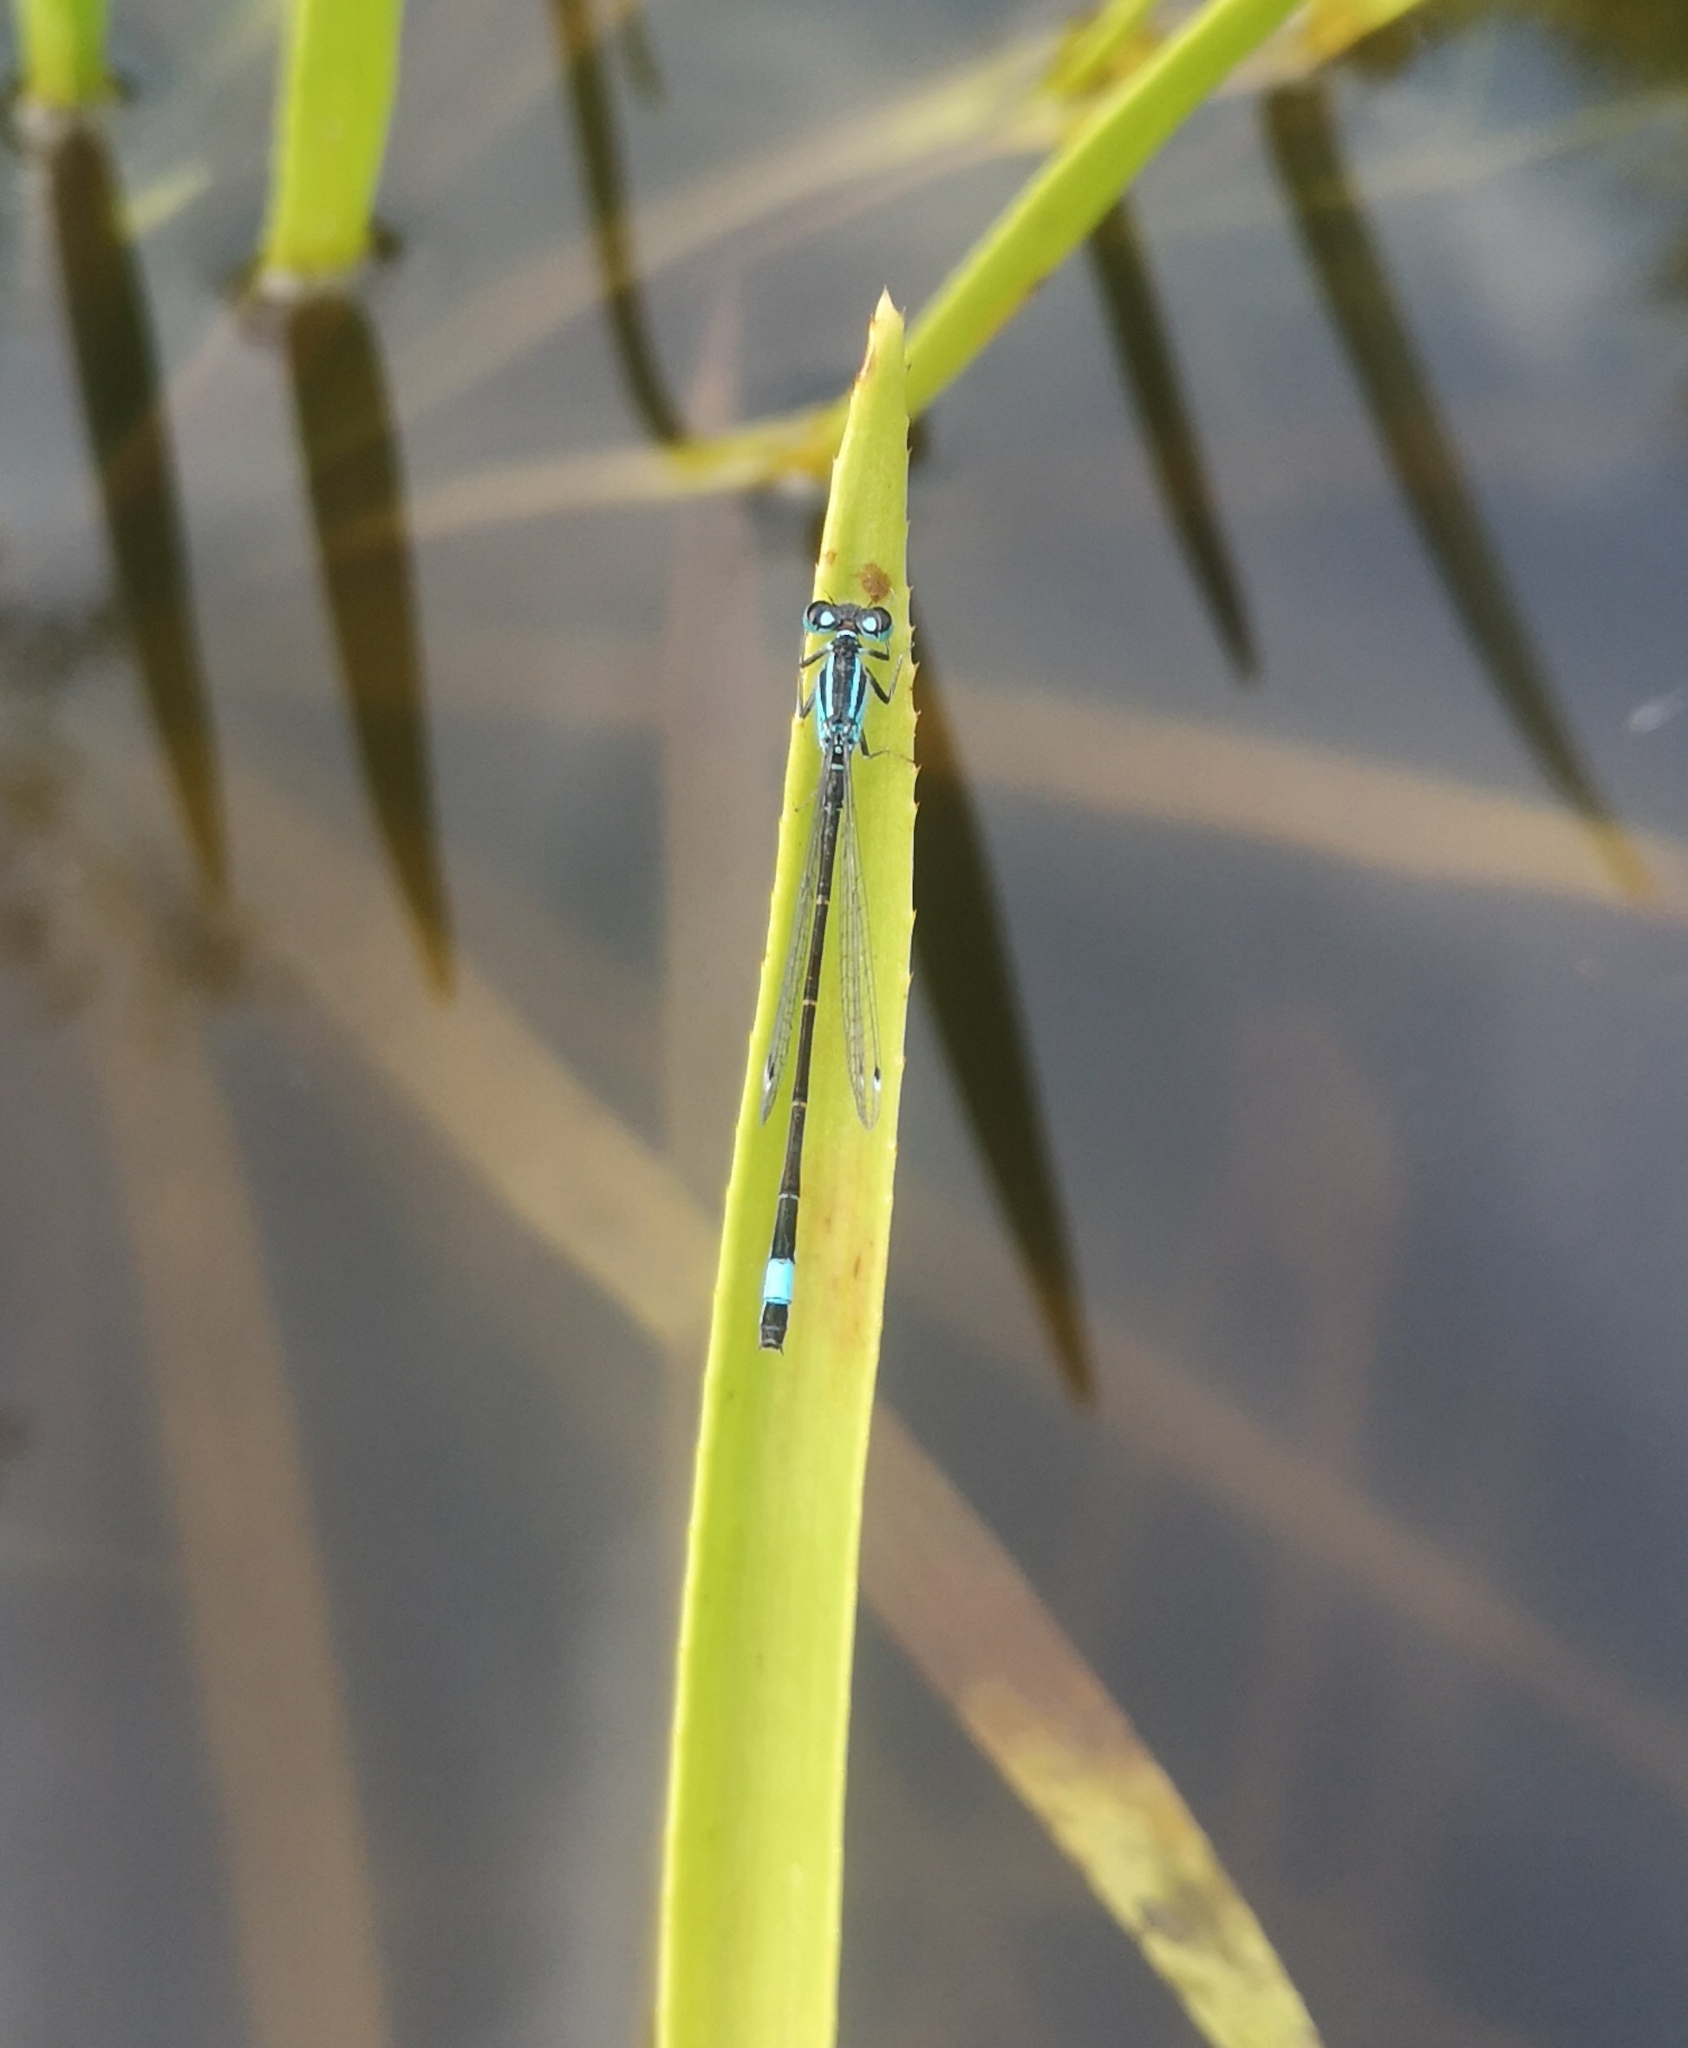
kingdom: Animalia
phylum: Arthropoda
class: Insecta
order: Odonata
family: Coenagrionidae
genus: Ischnura
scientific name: Ischnura elegans
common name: Blue-tailed damselfly
